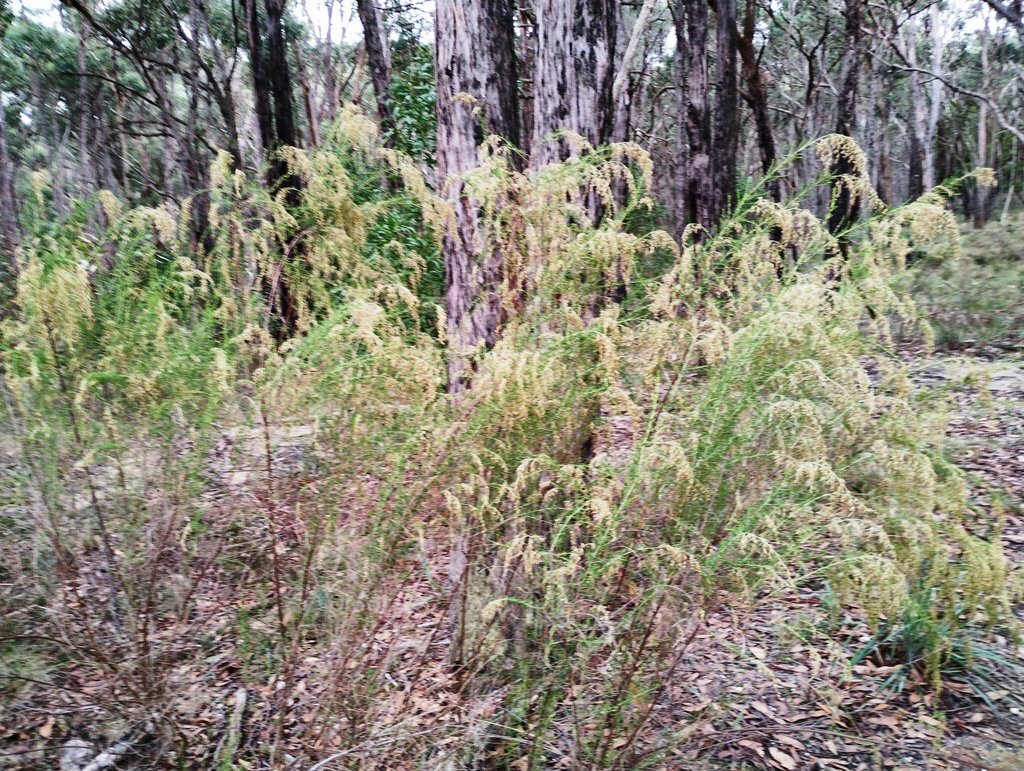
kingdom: Plantae
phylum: Tracheophyta
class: Magnoliopsida
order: Asterales
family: Asteraceae
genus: Cassinia
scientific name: Cassinia sifton
